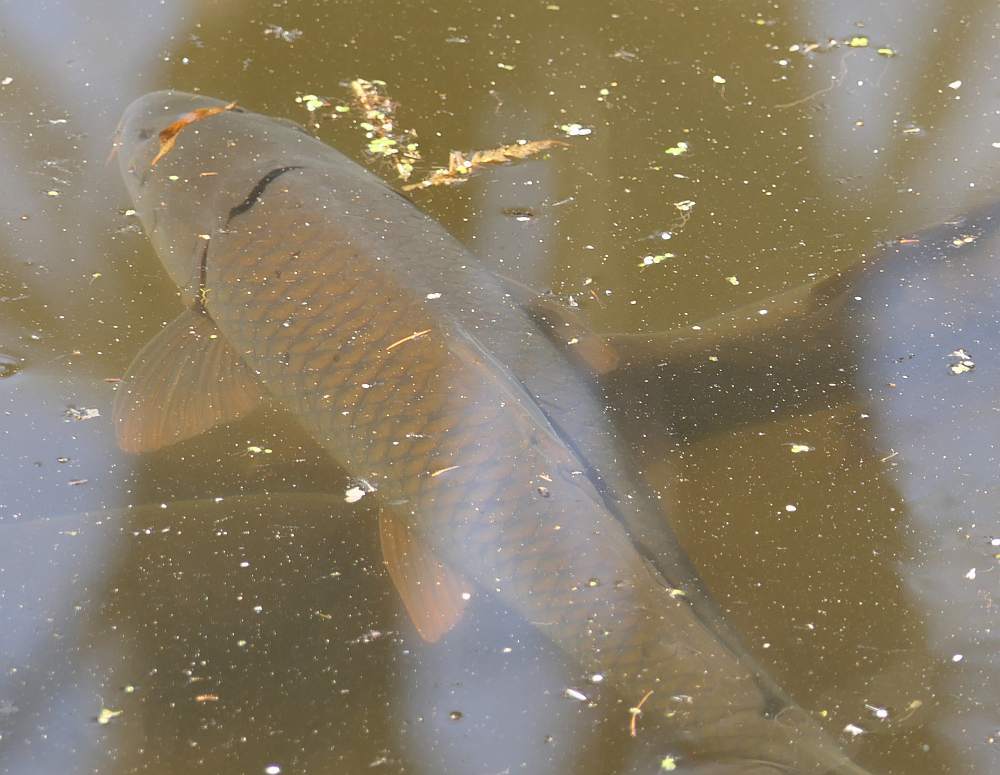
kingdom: Animalia
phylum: Chordata
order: Cypriniformes
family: Cyprinidae
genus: Cyprinus
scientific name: Cyprinus carpio
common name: Common carp
